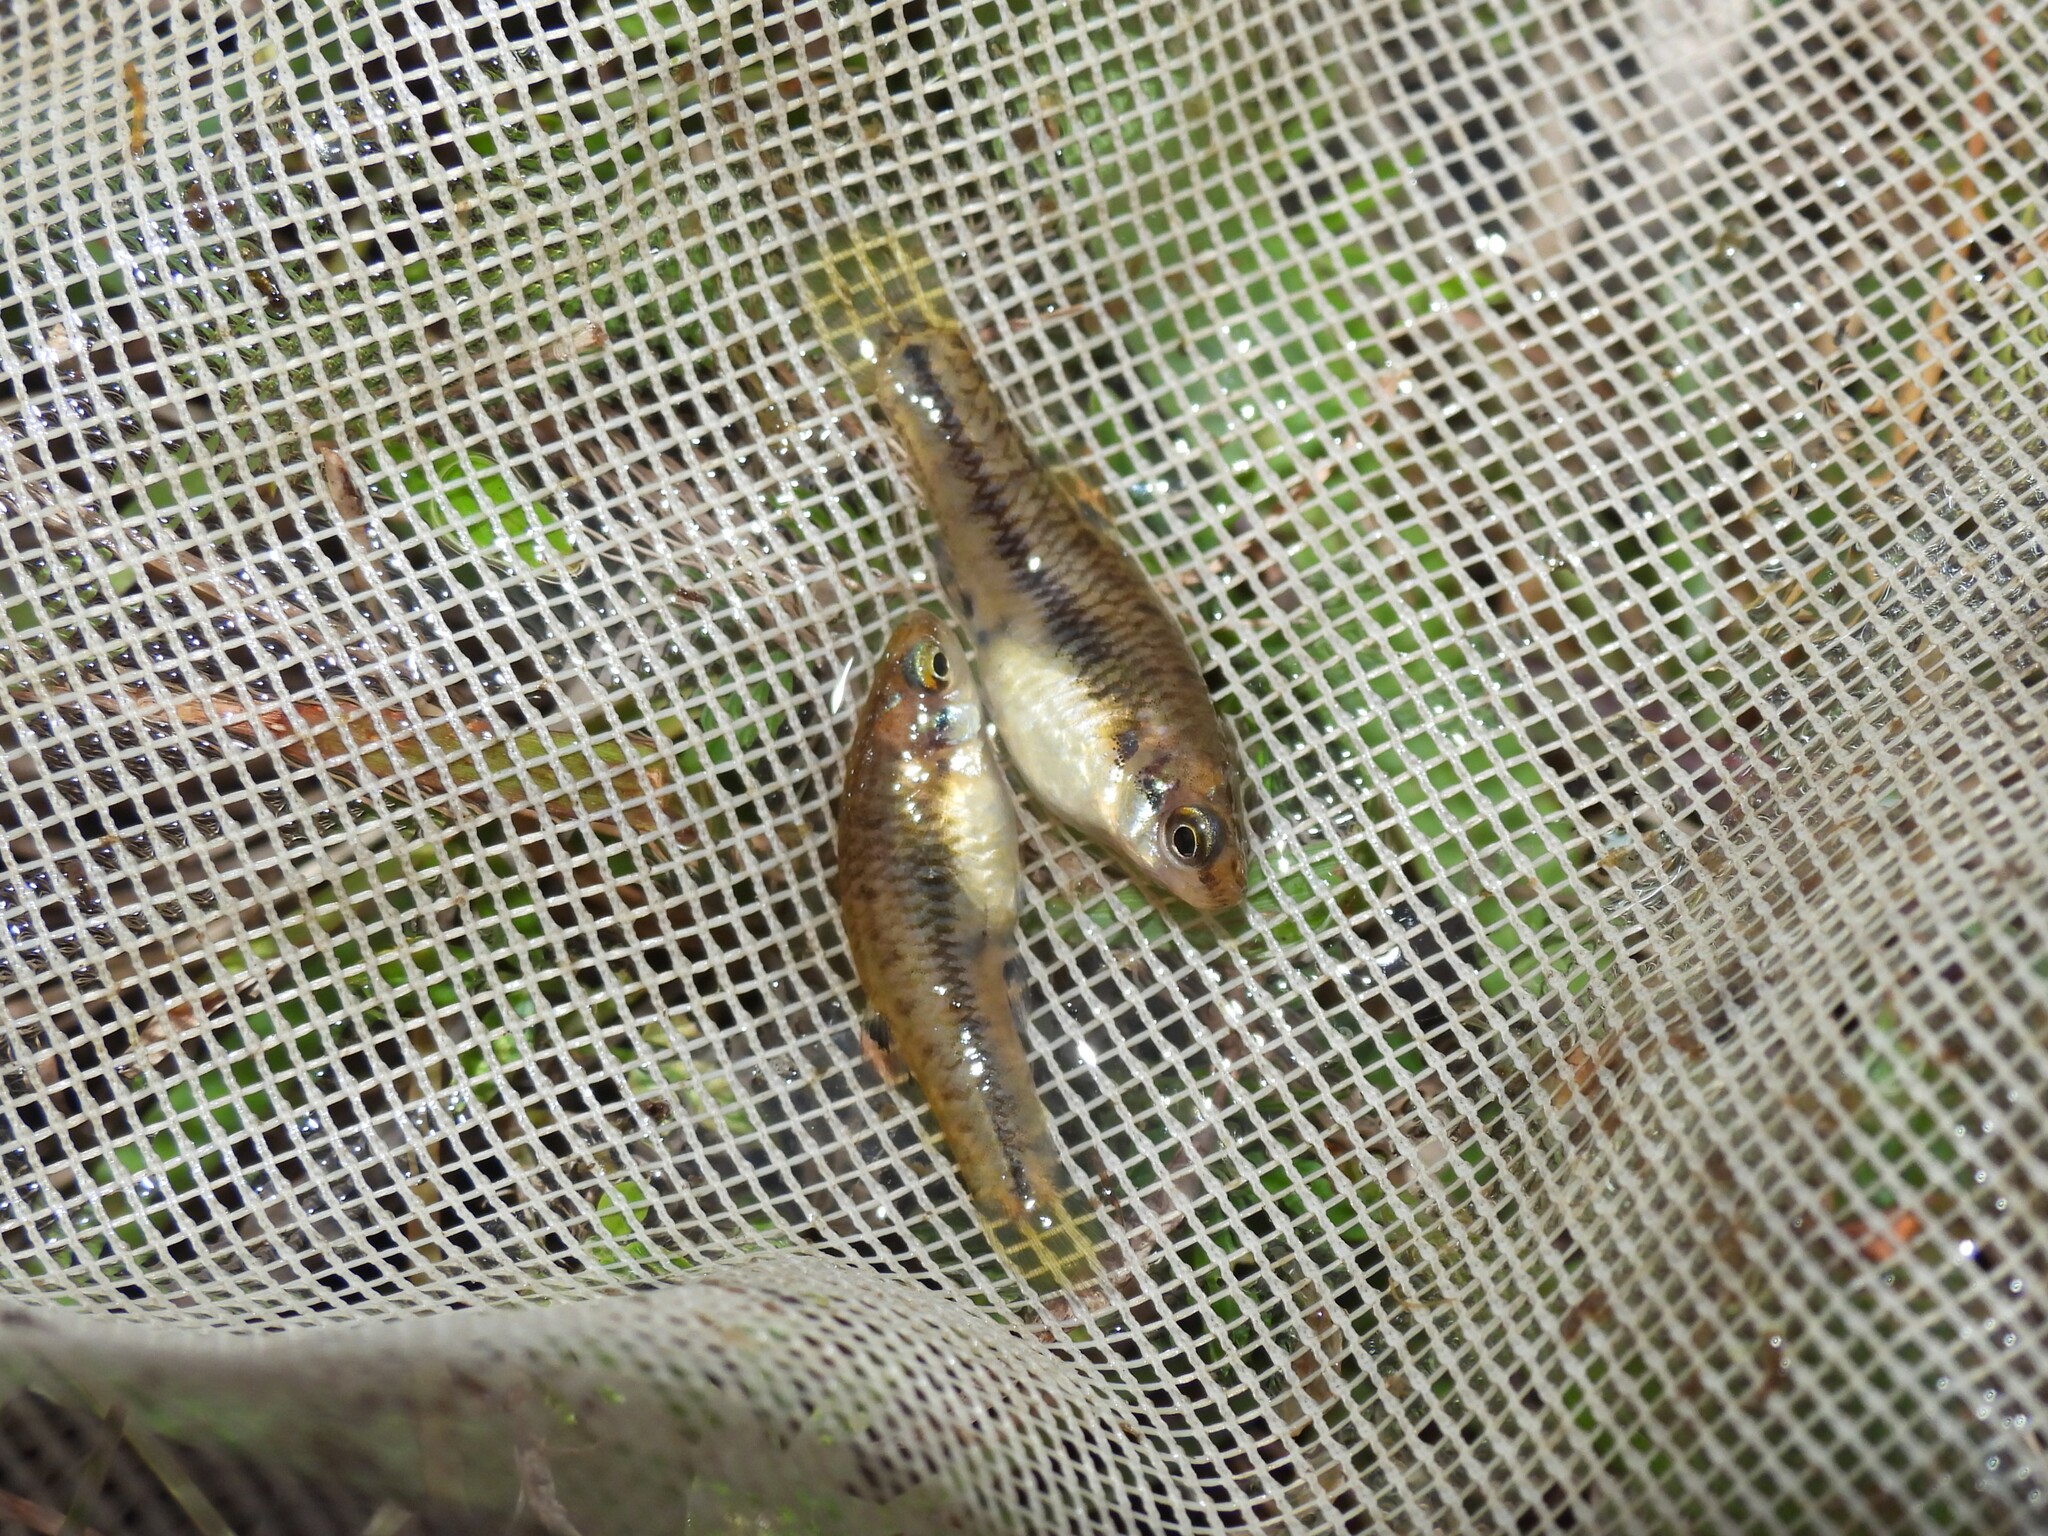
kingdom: Animalia
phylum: Chordata
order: Cyprinodontiformes
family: Poeciliidae
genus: Heterandria
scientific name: Heterandria formosa
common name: Least killifish
